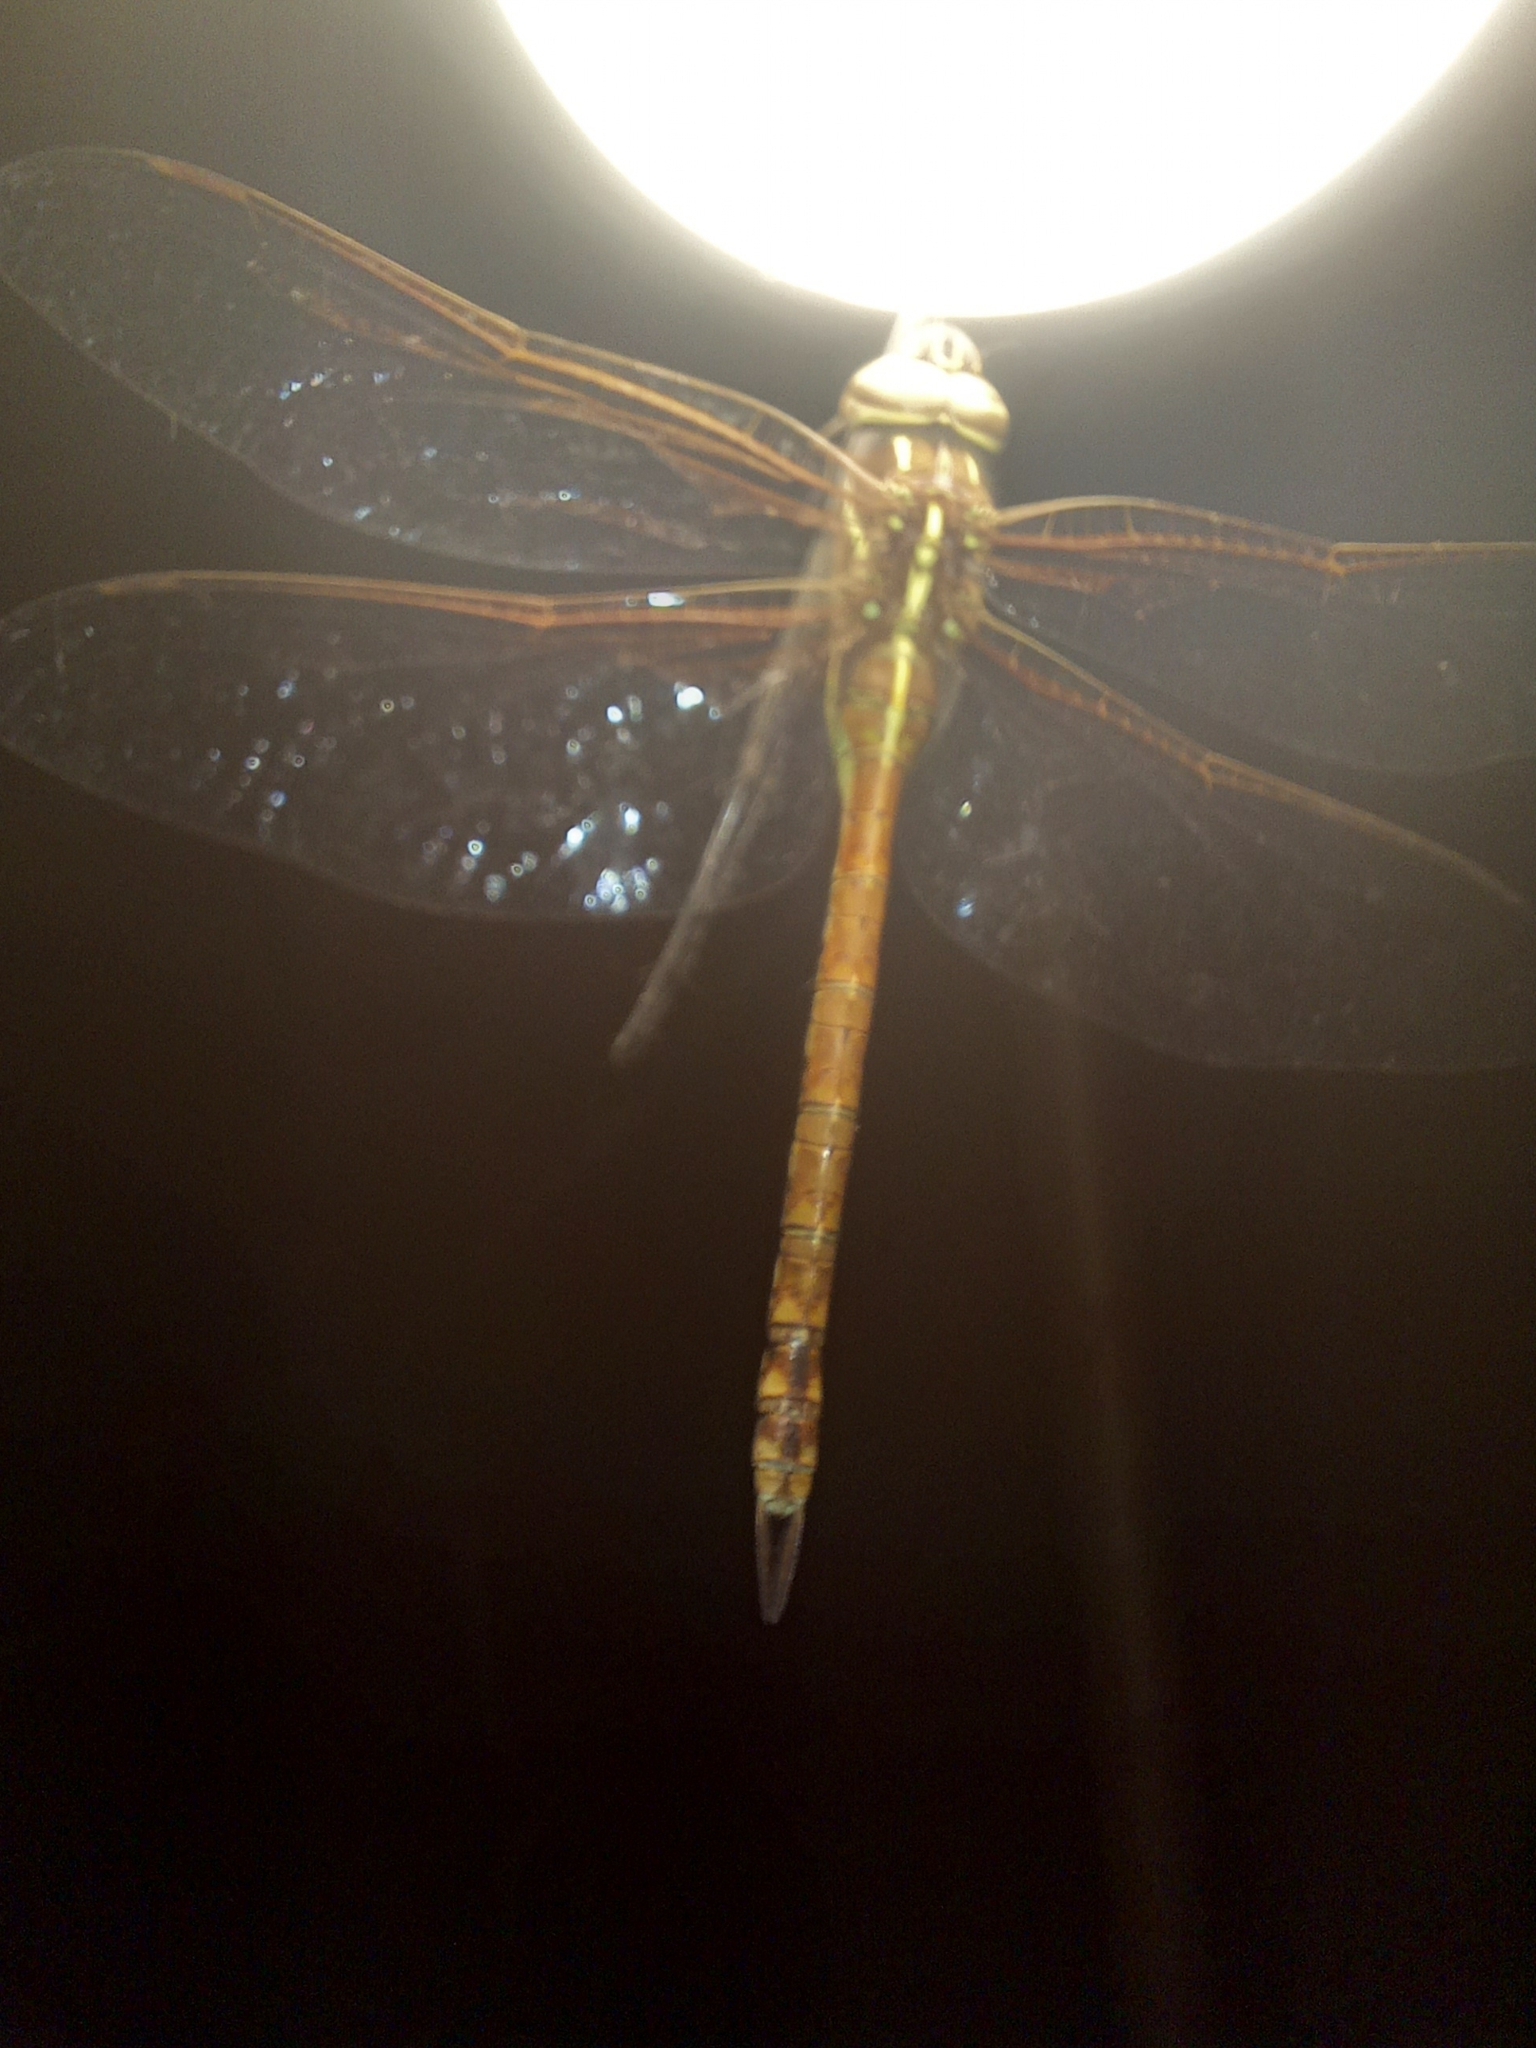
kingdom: Animalia
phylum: Arthropoda
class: Insecta
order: Odonata
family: Aeshnidae
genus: Rhionaeschna
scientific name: Rhionaeschna confusa
